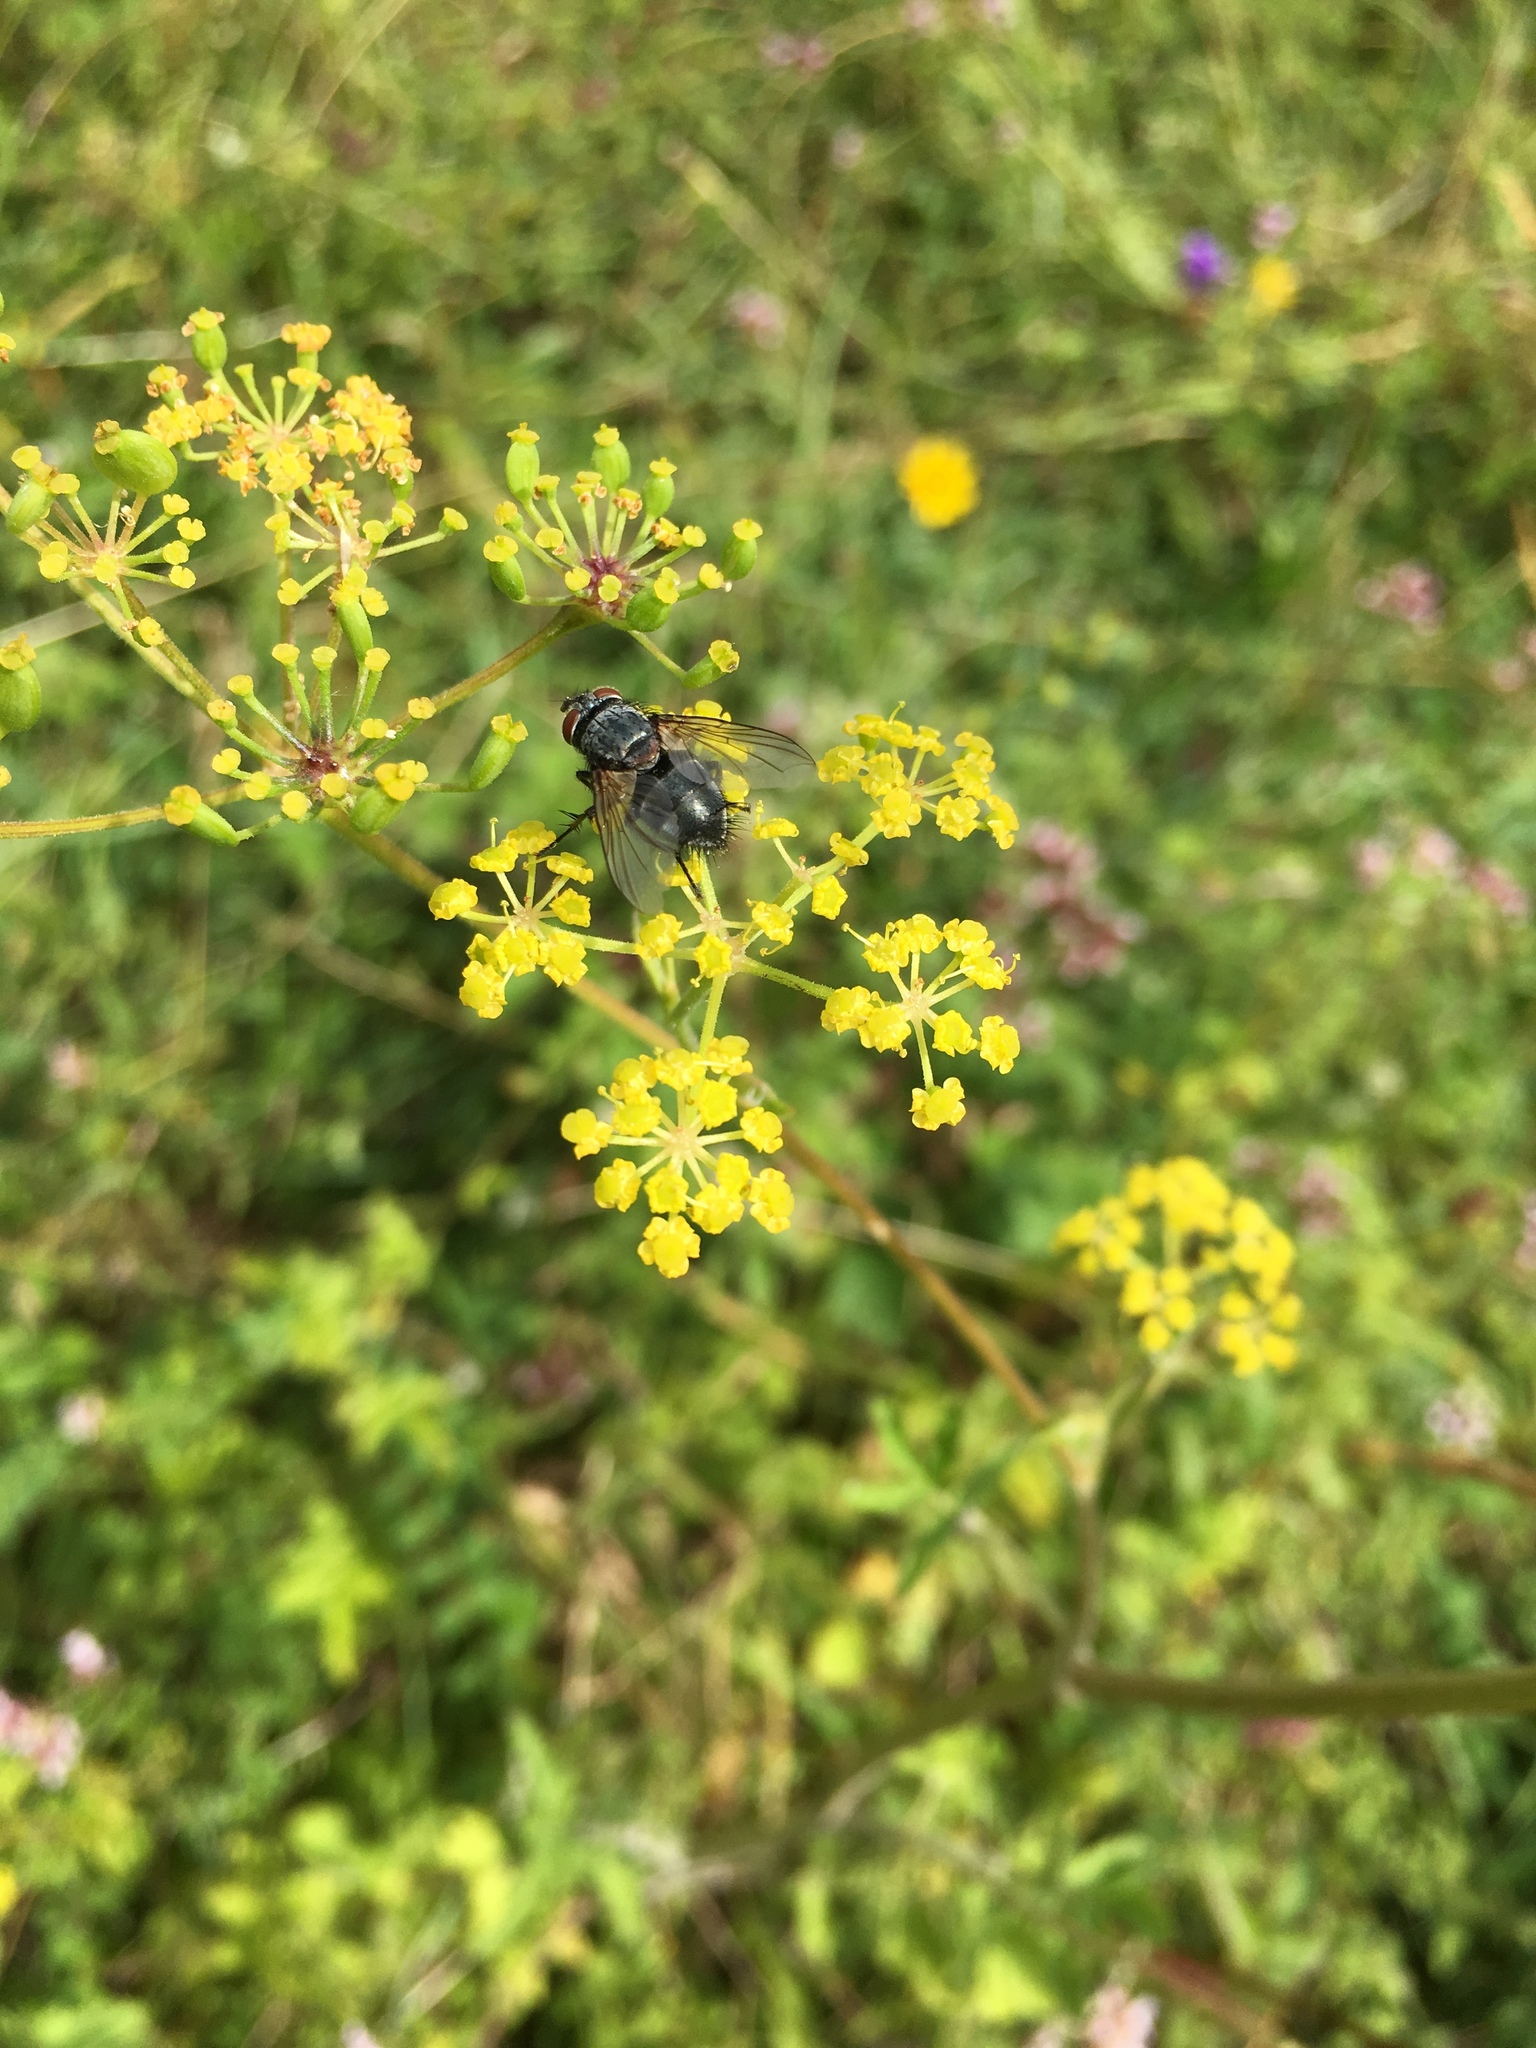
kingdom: Animalia
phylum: Arthropoda
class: Insecta
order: Diptera
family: Tachinidae
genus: Pales
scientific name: Pales pavida
